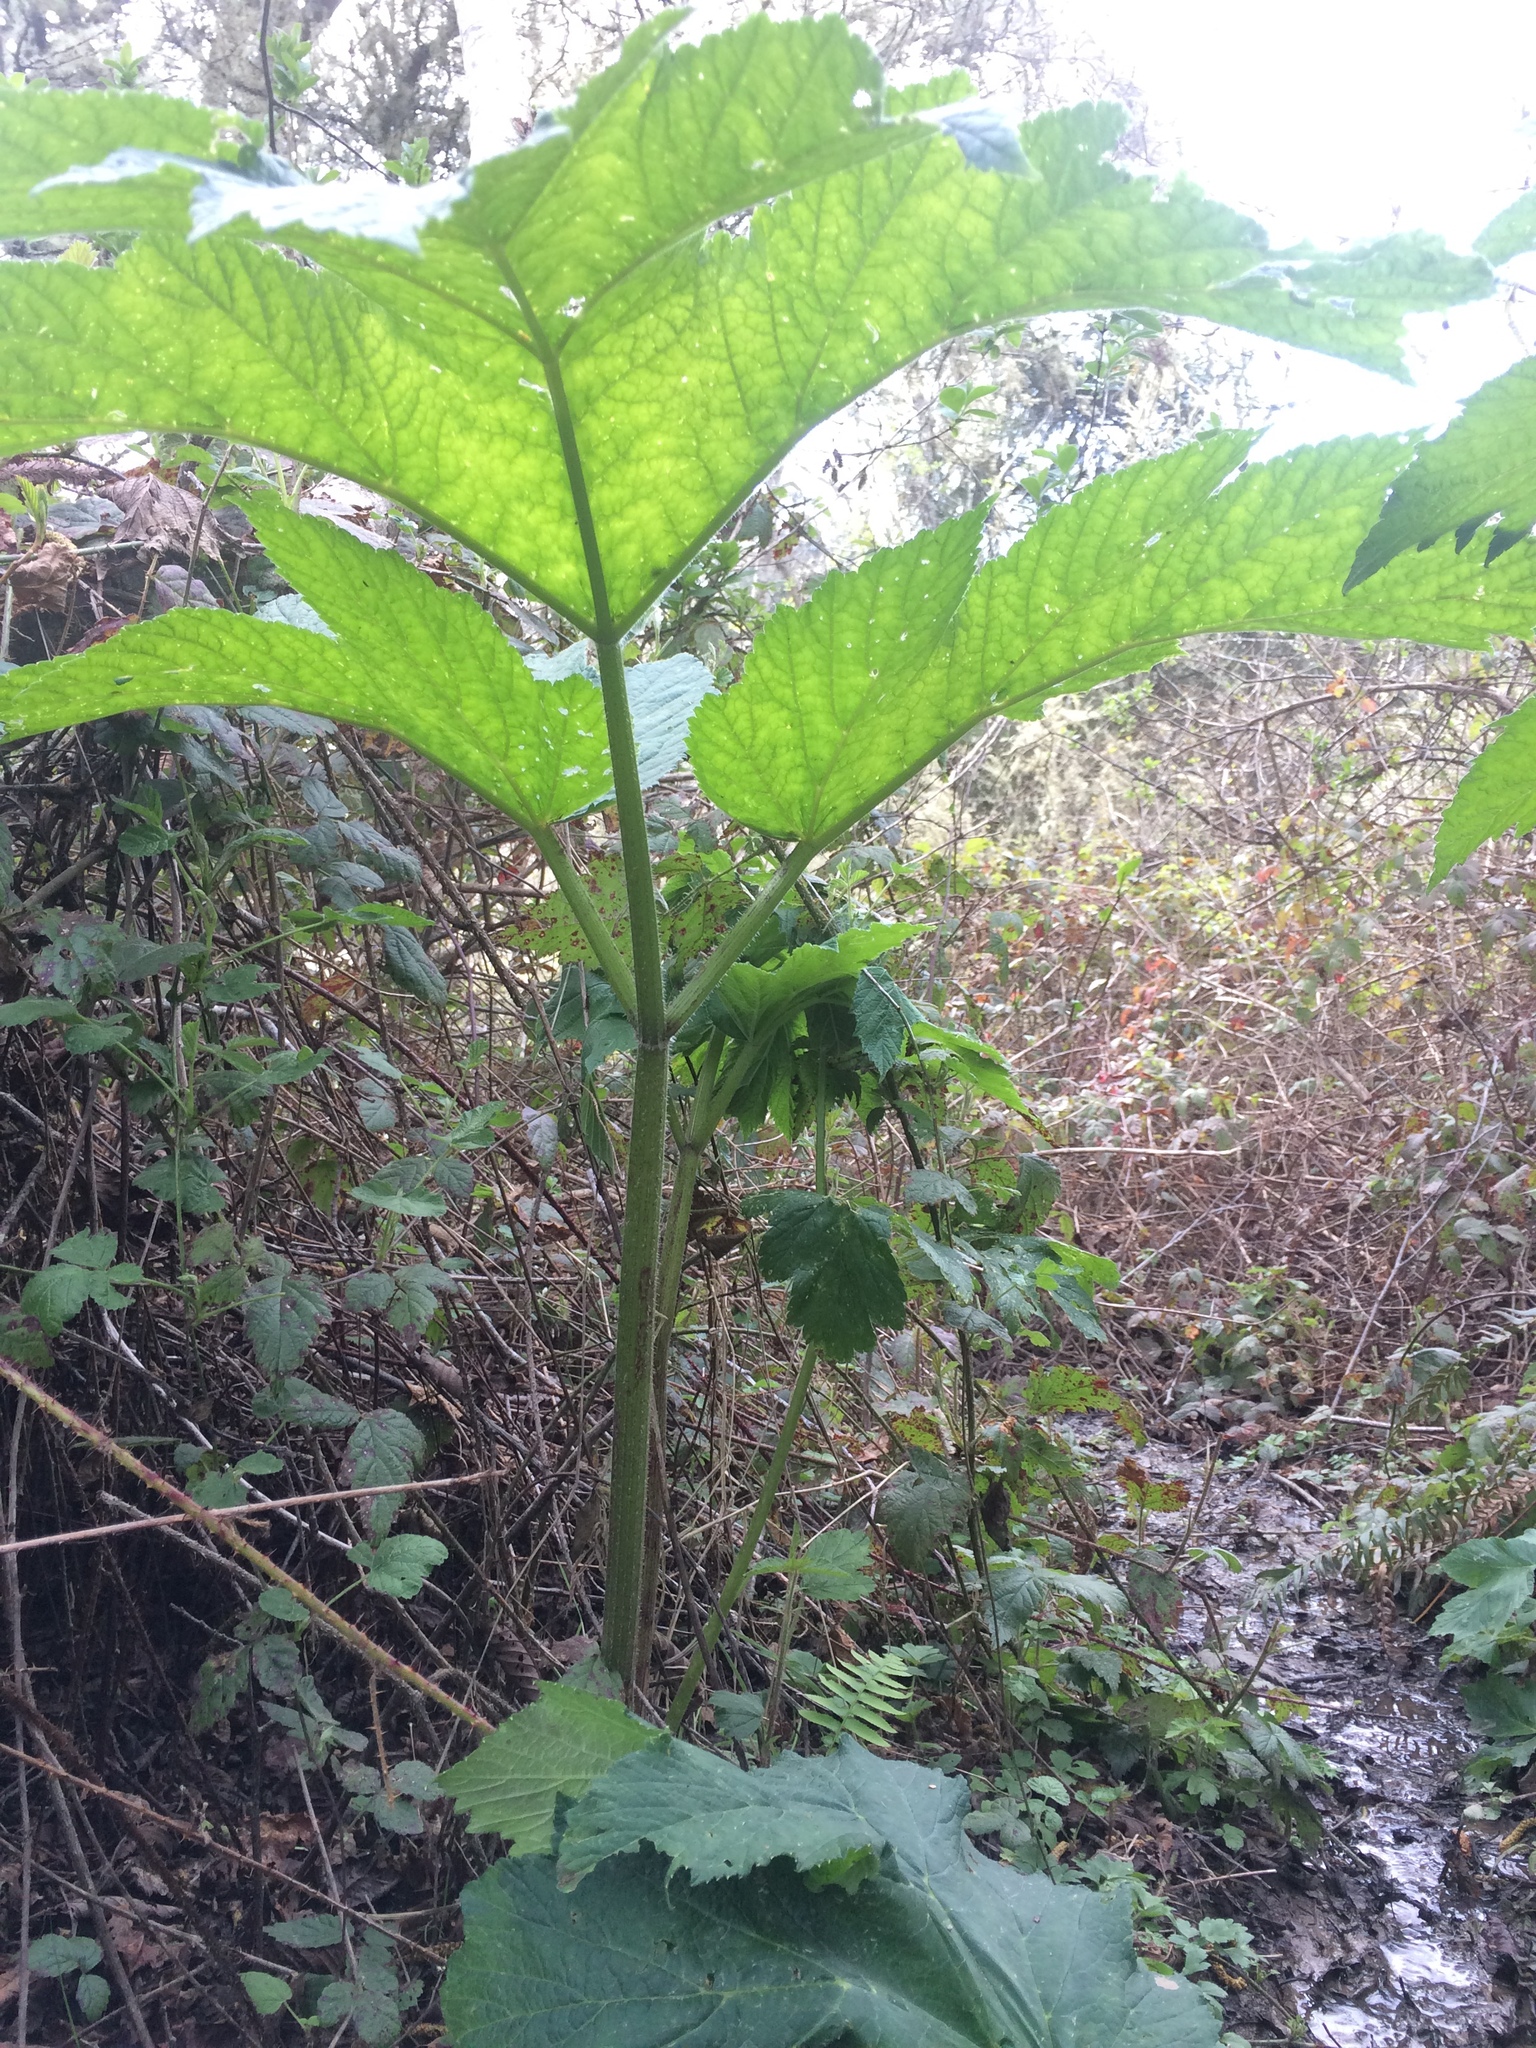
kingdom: Plantae
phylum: Tracheophyta
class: Magnoliopsida
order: Apiales
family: Apiaceae
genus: Heracleum
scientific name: Heracleum maximum
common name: American cow parsnip
